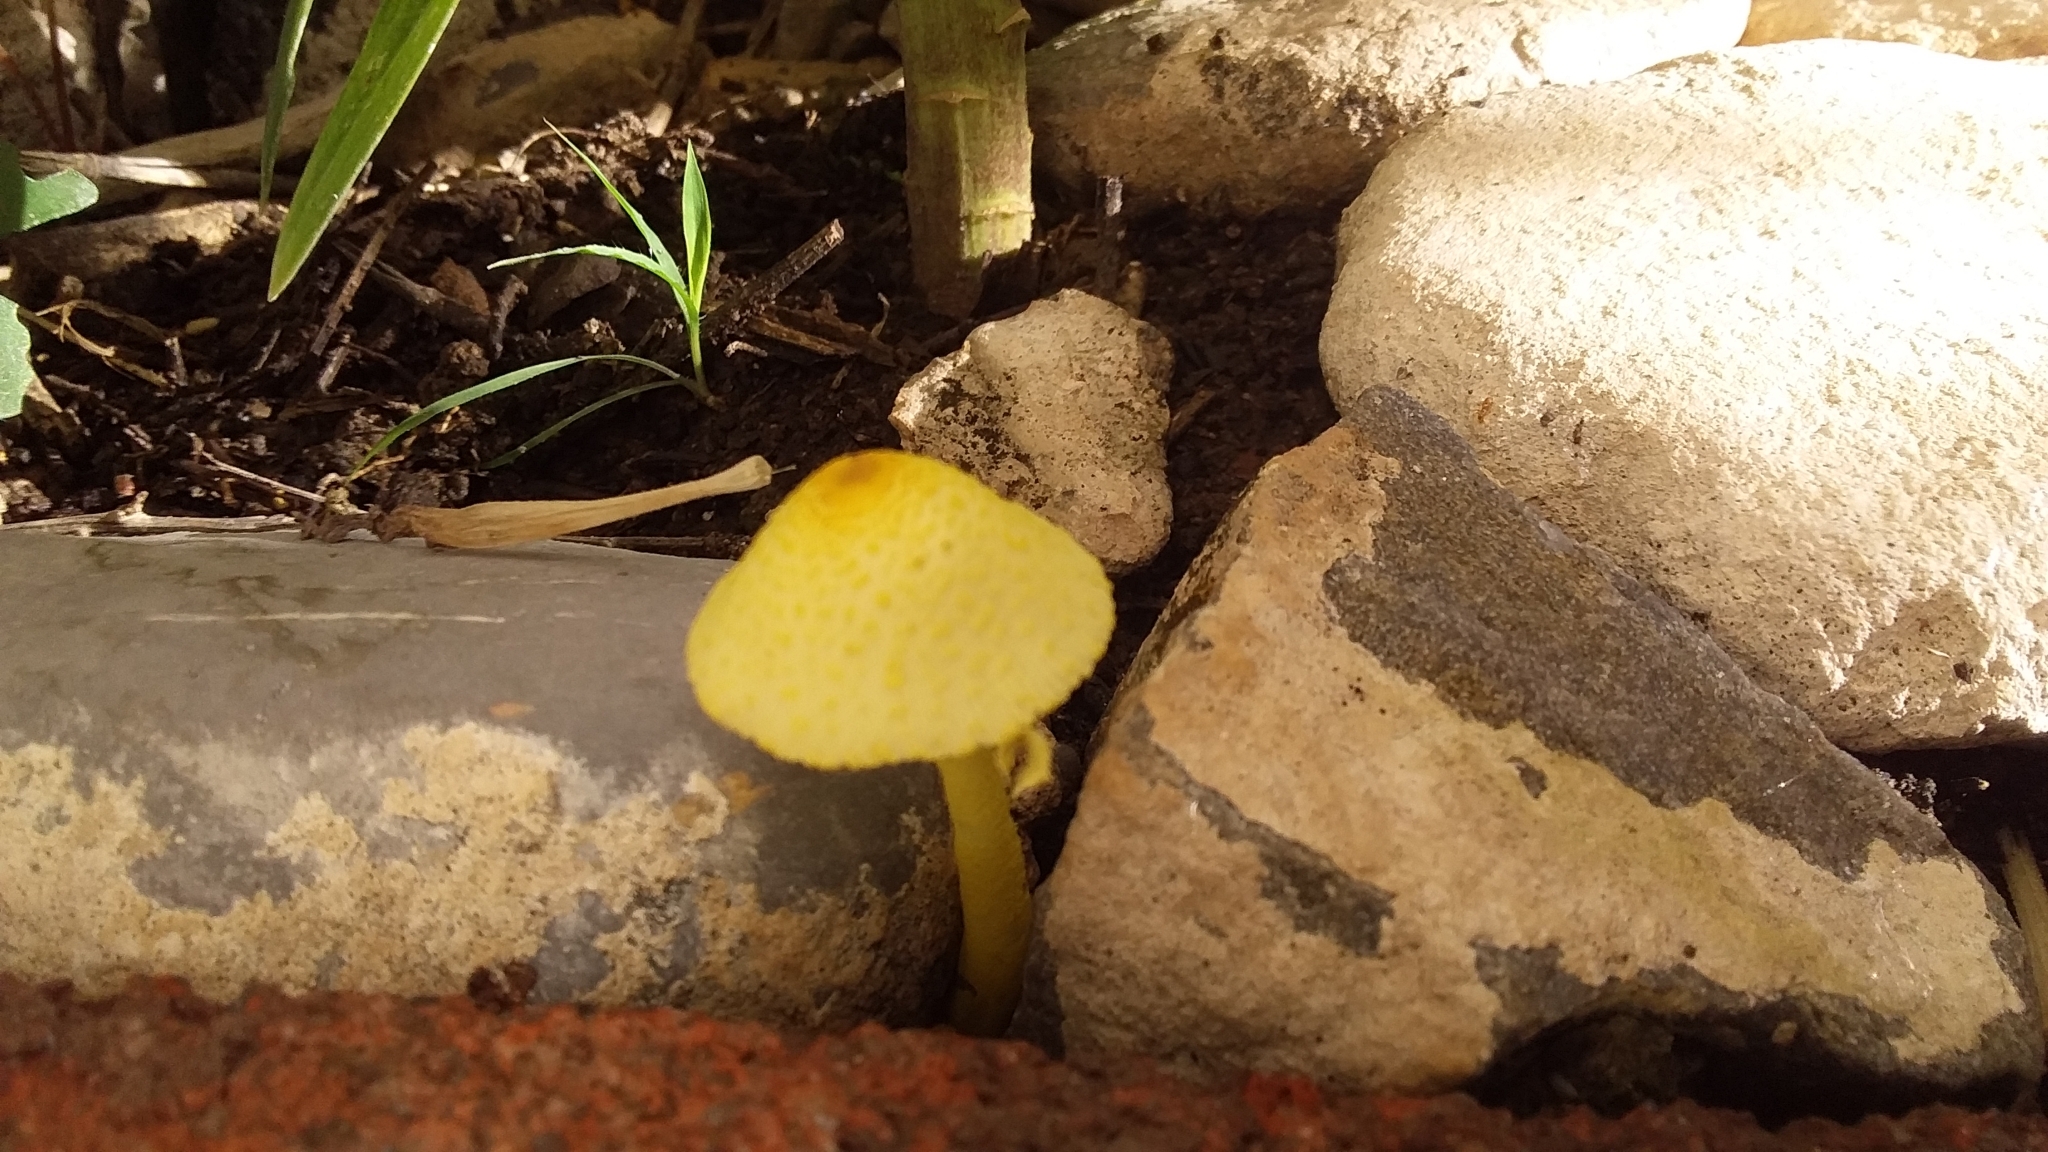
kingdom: Fungi
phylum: Basidiomycota
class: Agaricomycetes
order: Agaricales
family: Agaricaceae
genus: Leucocoprinus
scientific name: Leucocoprinus birnbaumii
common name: Plantpot dapperling
